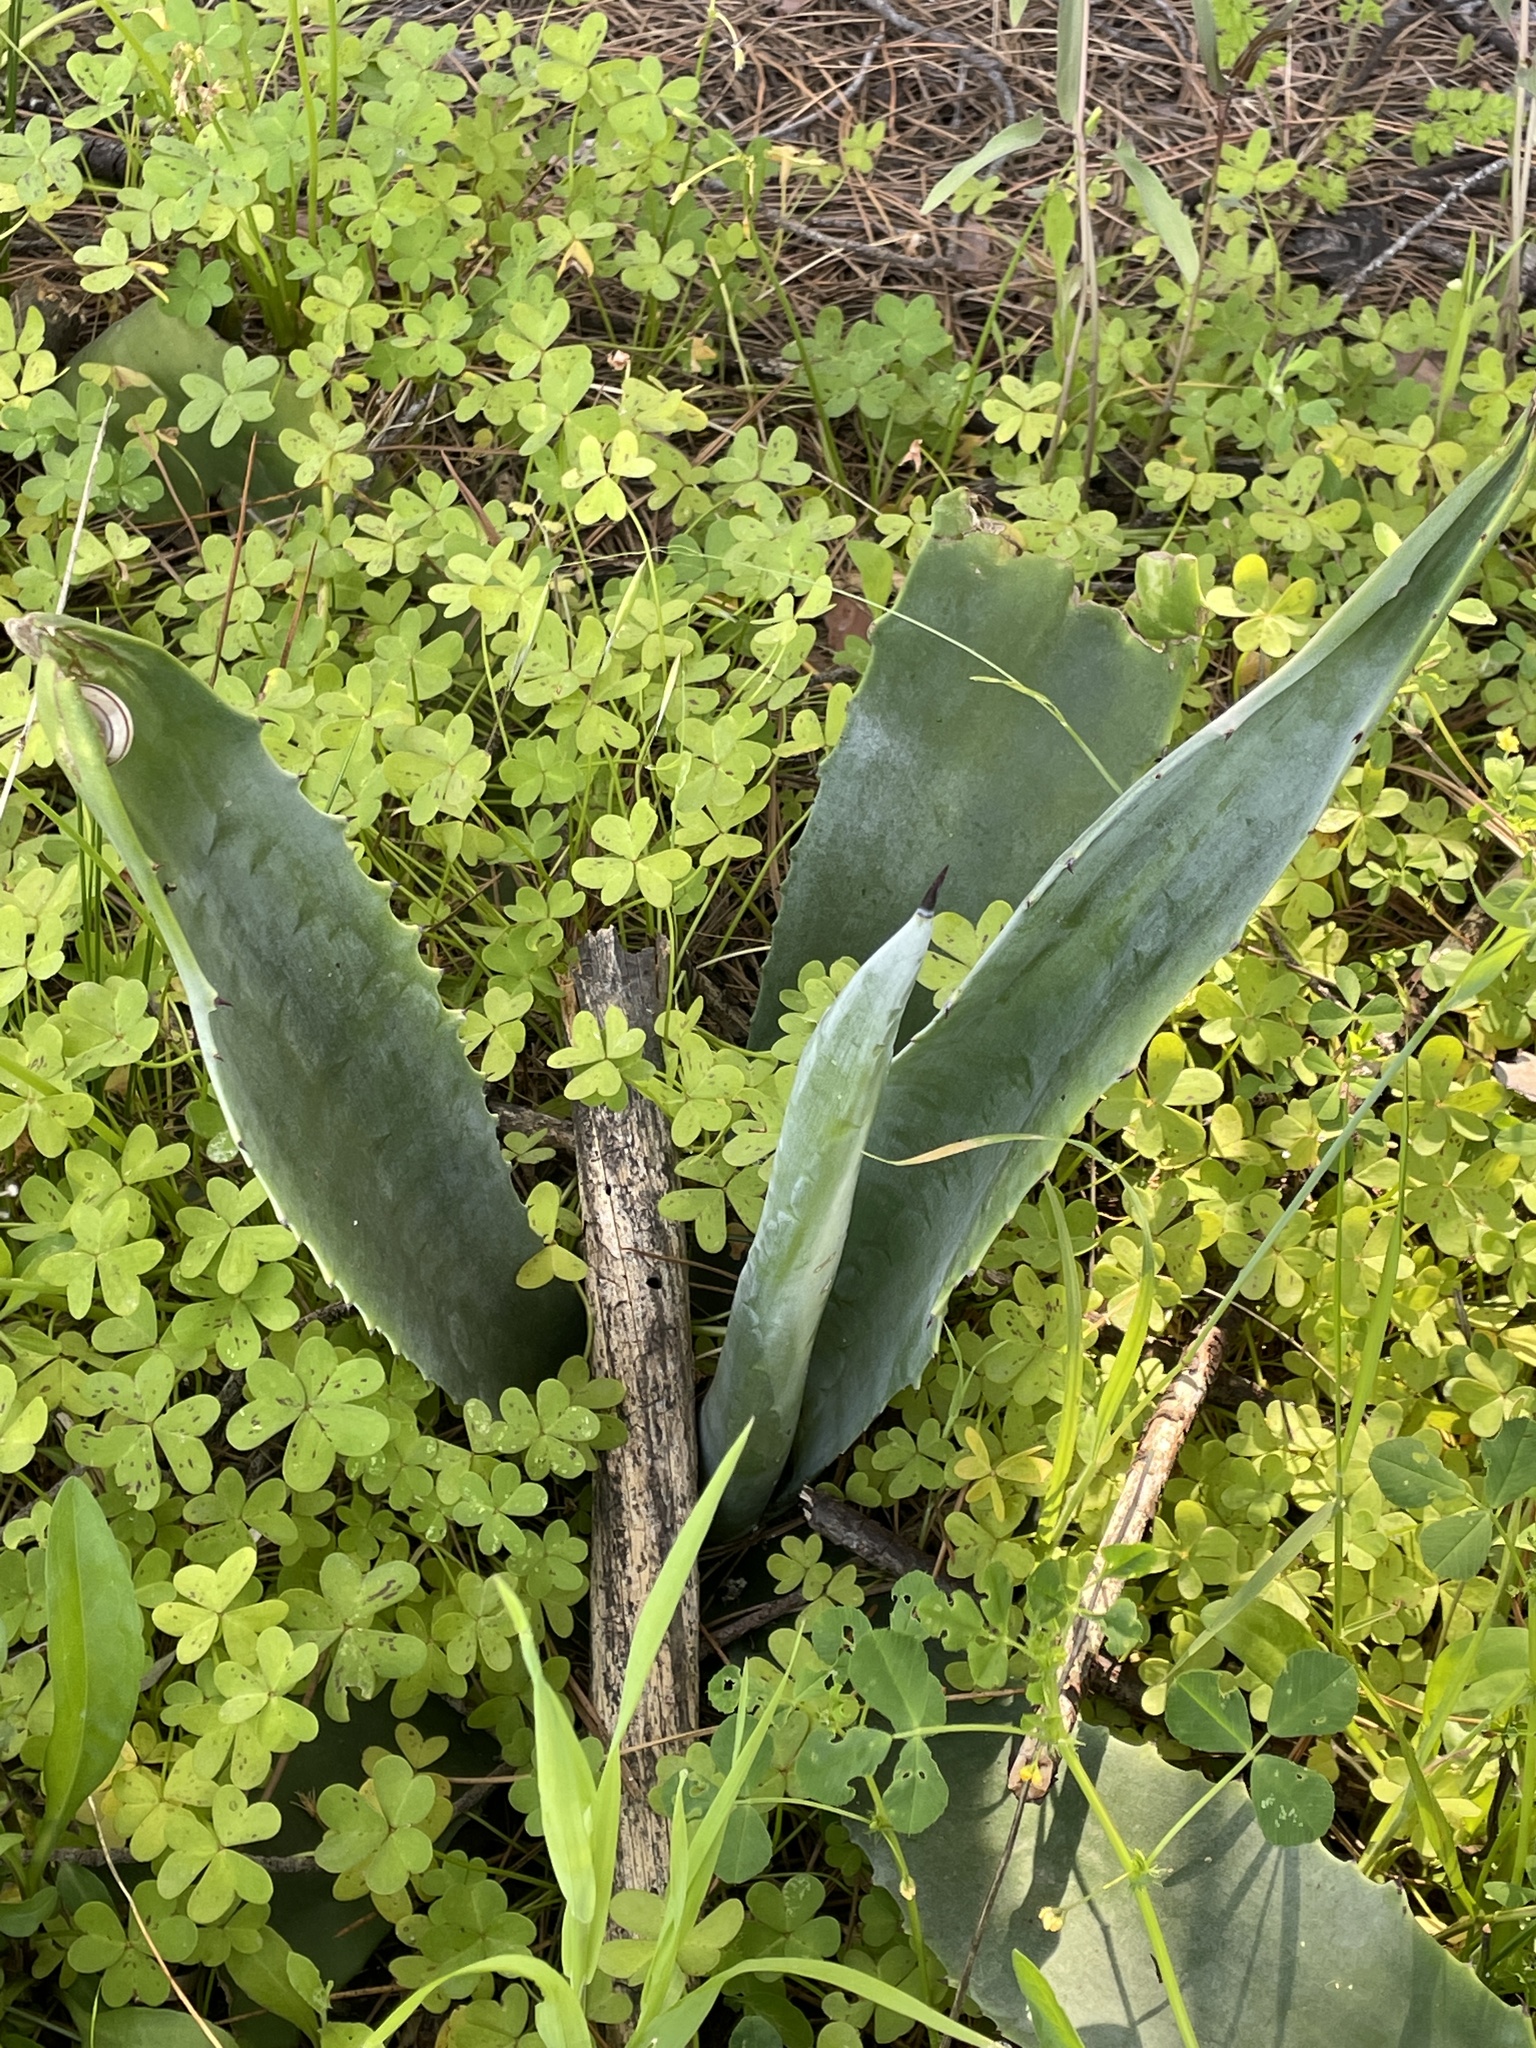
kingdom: Plantae
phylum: Tracheophyta
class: Liliopsida
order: Asparagales
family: Asparagaceae
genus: Agave
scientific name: Agave americana
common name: Centuryplant
